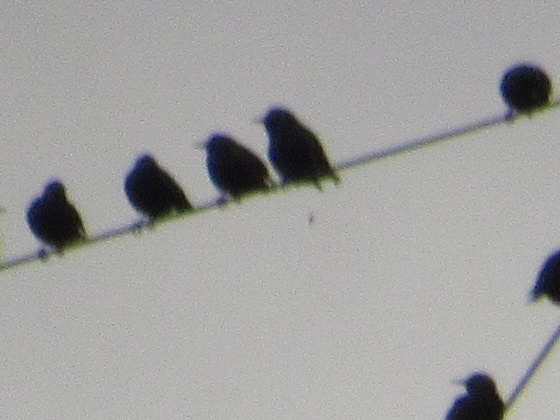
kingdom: Animalia
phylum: Chordata
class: Aves
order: Passeriformes
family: Sturnidae
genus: Sturnus
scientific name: Sturnus vulgaris
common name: Common starling
